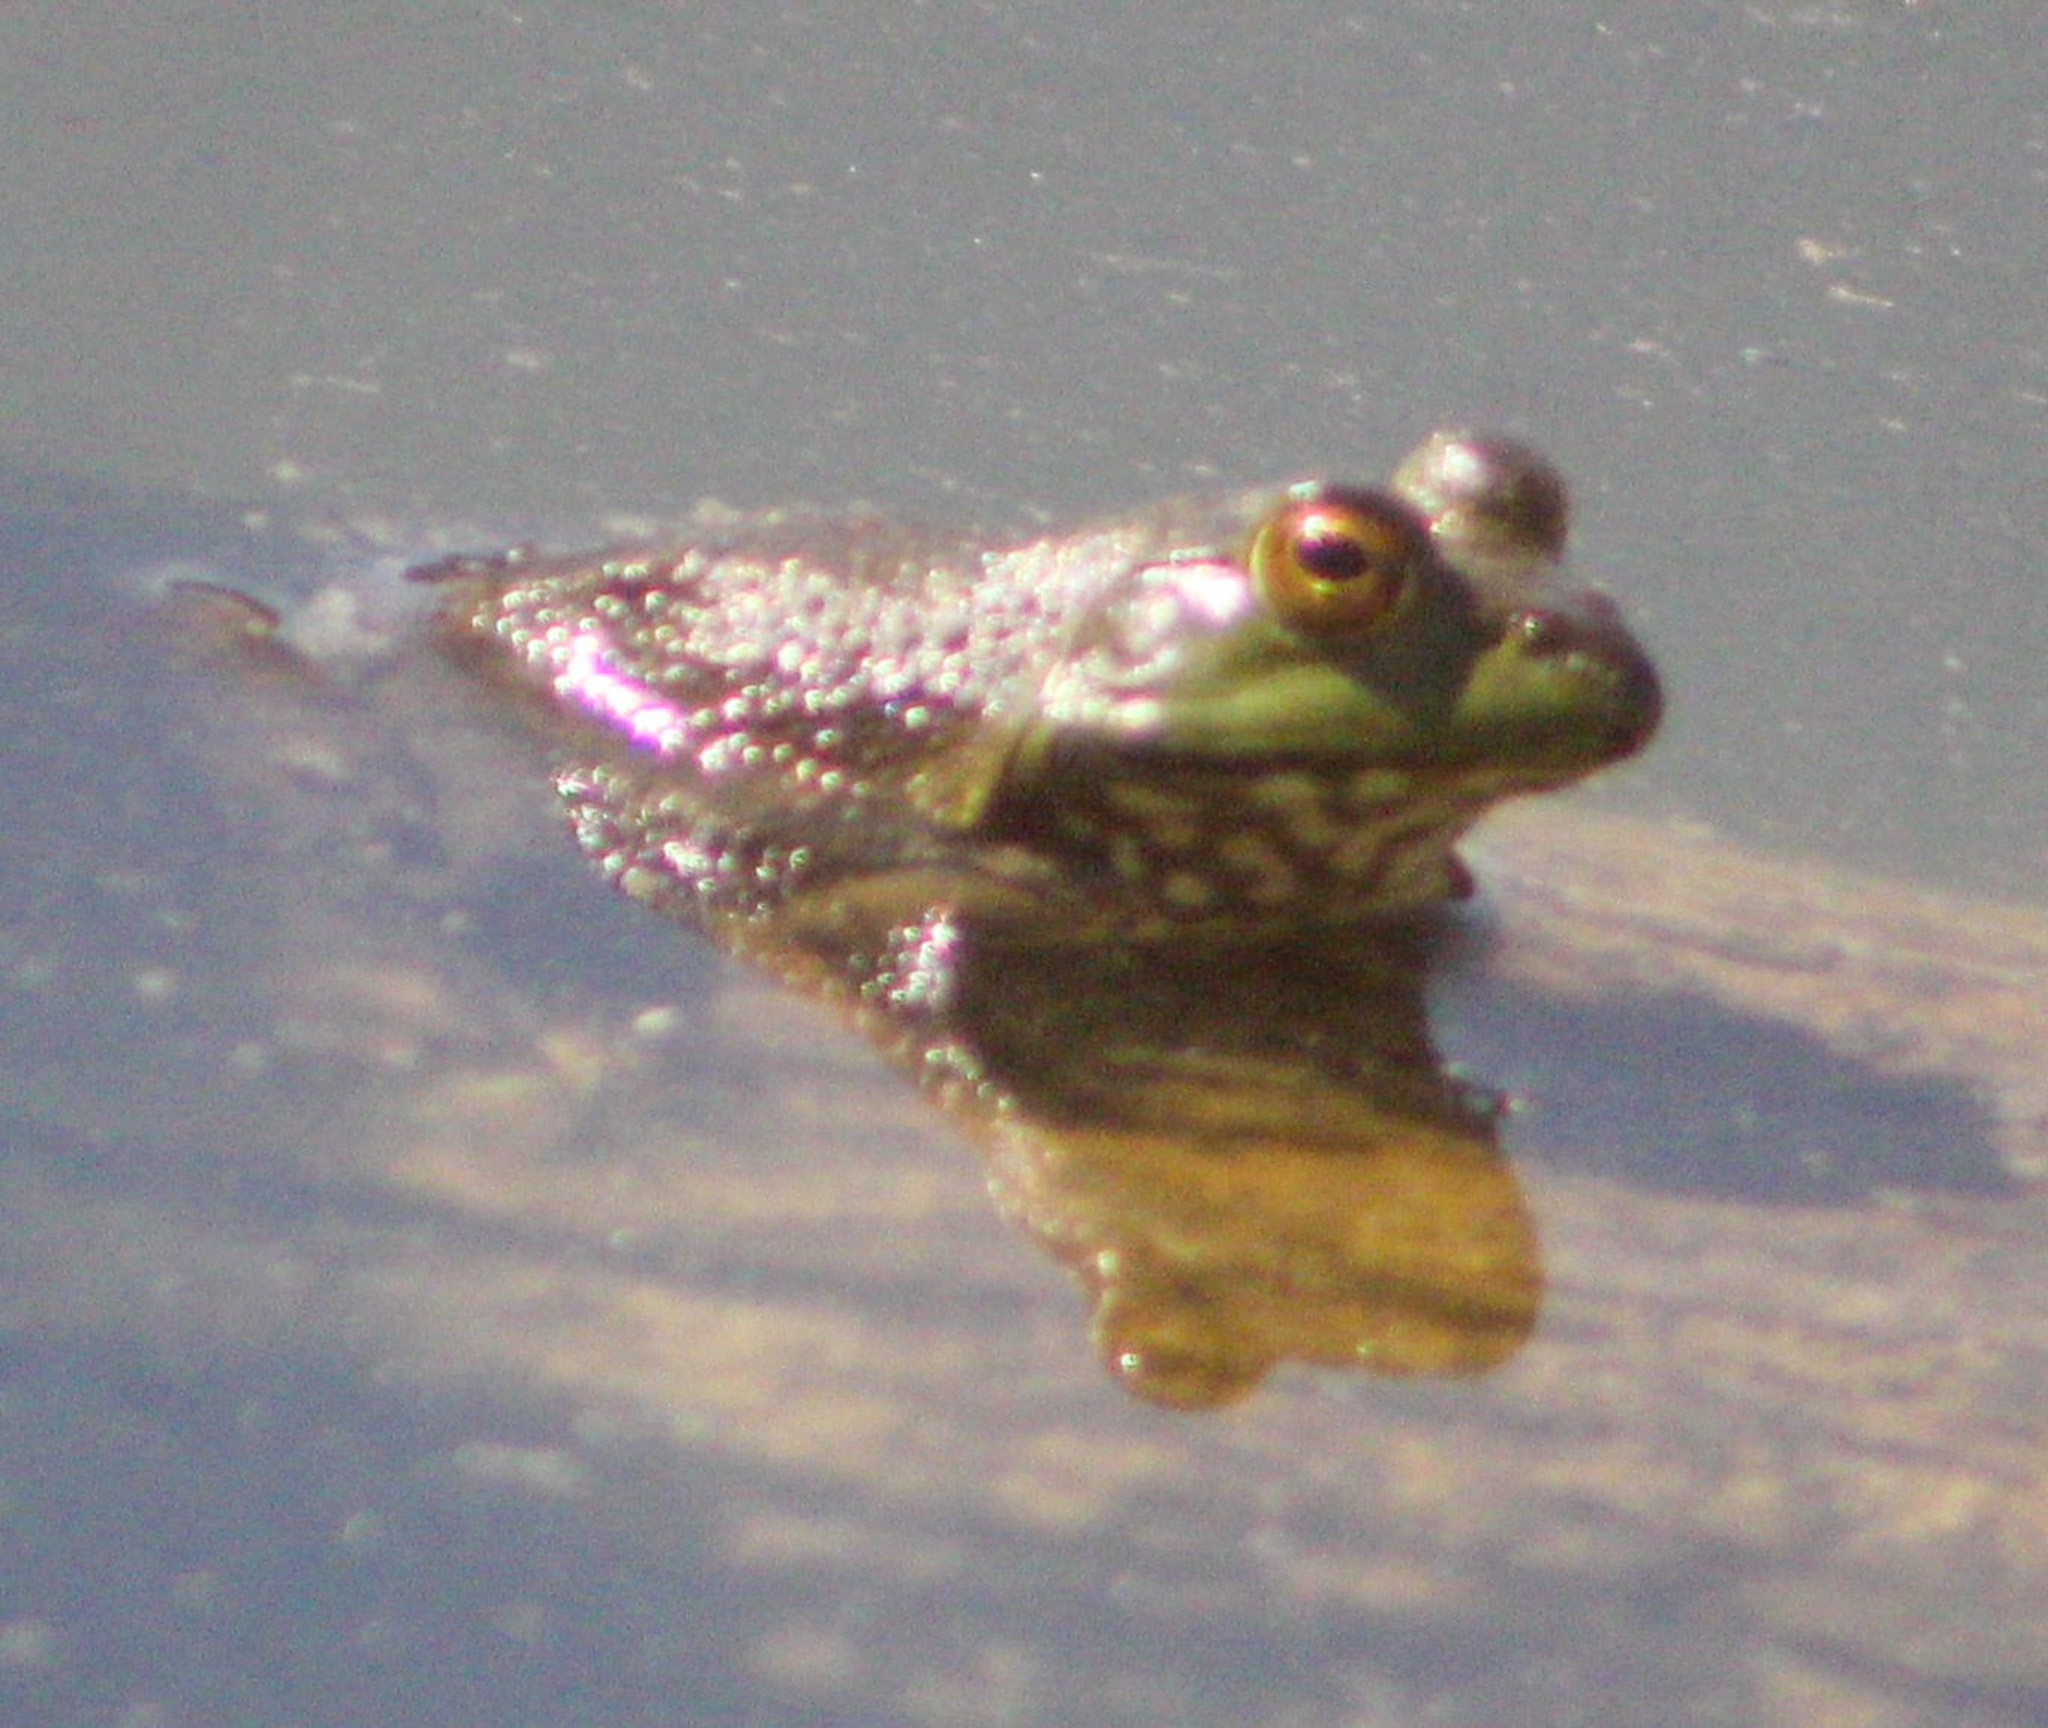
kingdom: Animalia
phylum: Chordata
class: Amphibia
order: Anura
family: Ranidae
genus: Lithobates
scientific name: Lithobates catesbeianus
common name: American bullfrog
